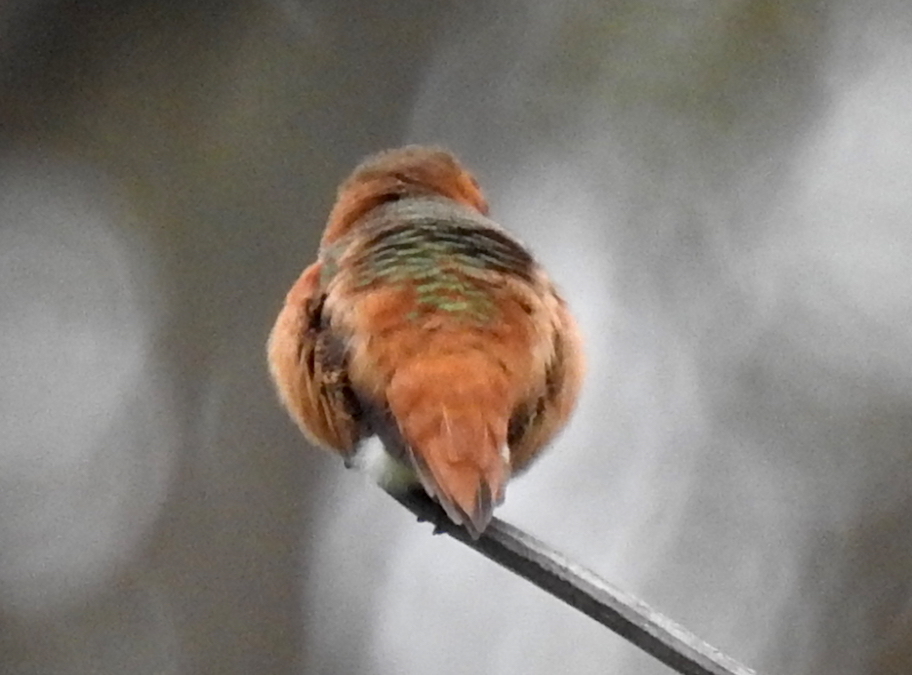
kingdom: Animalia
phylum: Chordata
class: Aves
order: Apodiformes
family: Trochilidae
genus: Selasphorus
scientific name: Selasphorus sasin
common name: Allen's hummingbird
